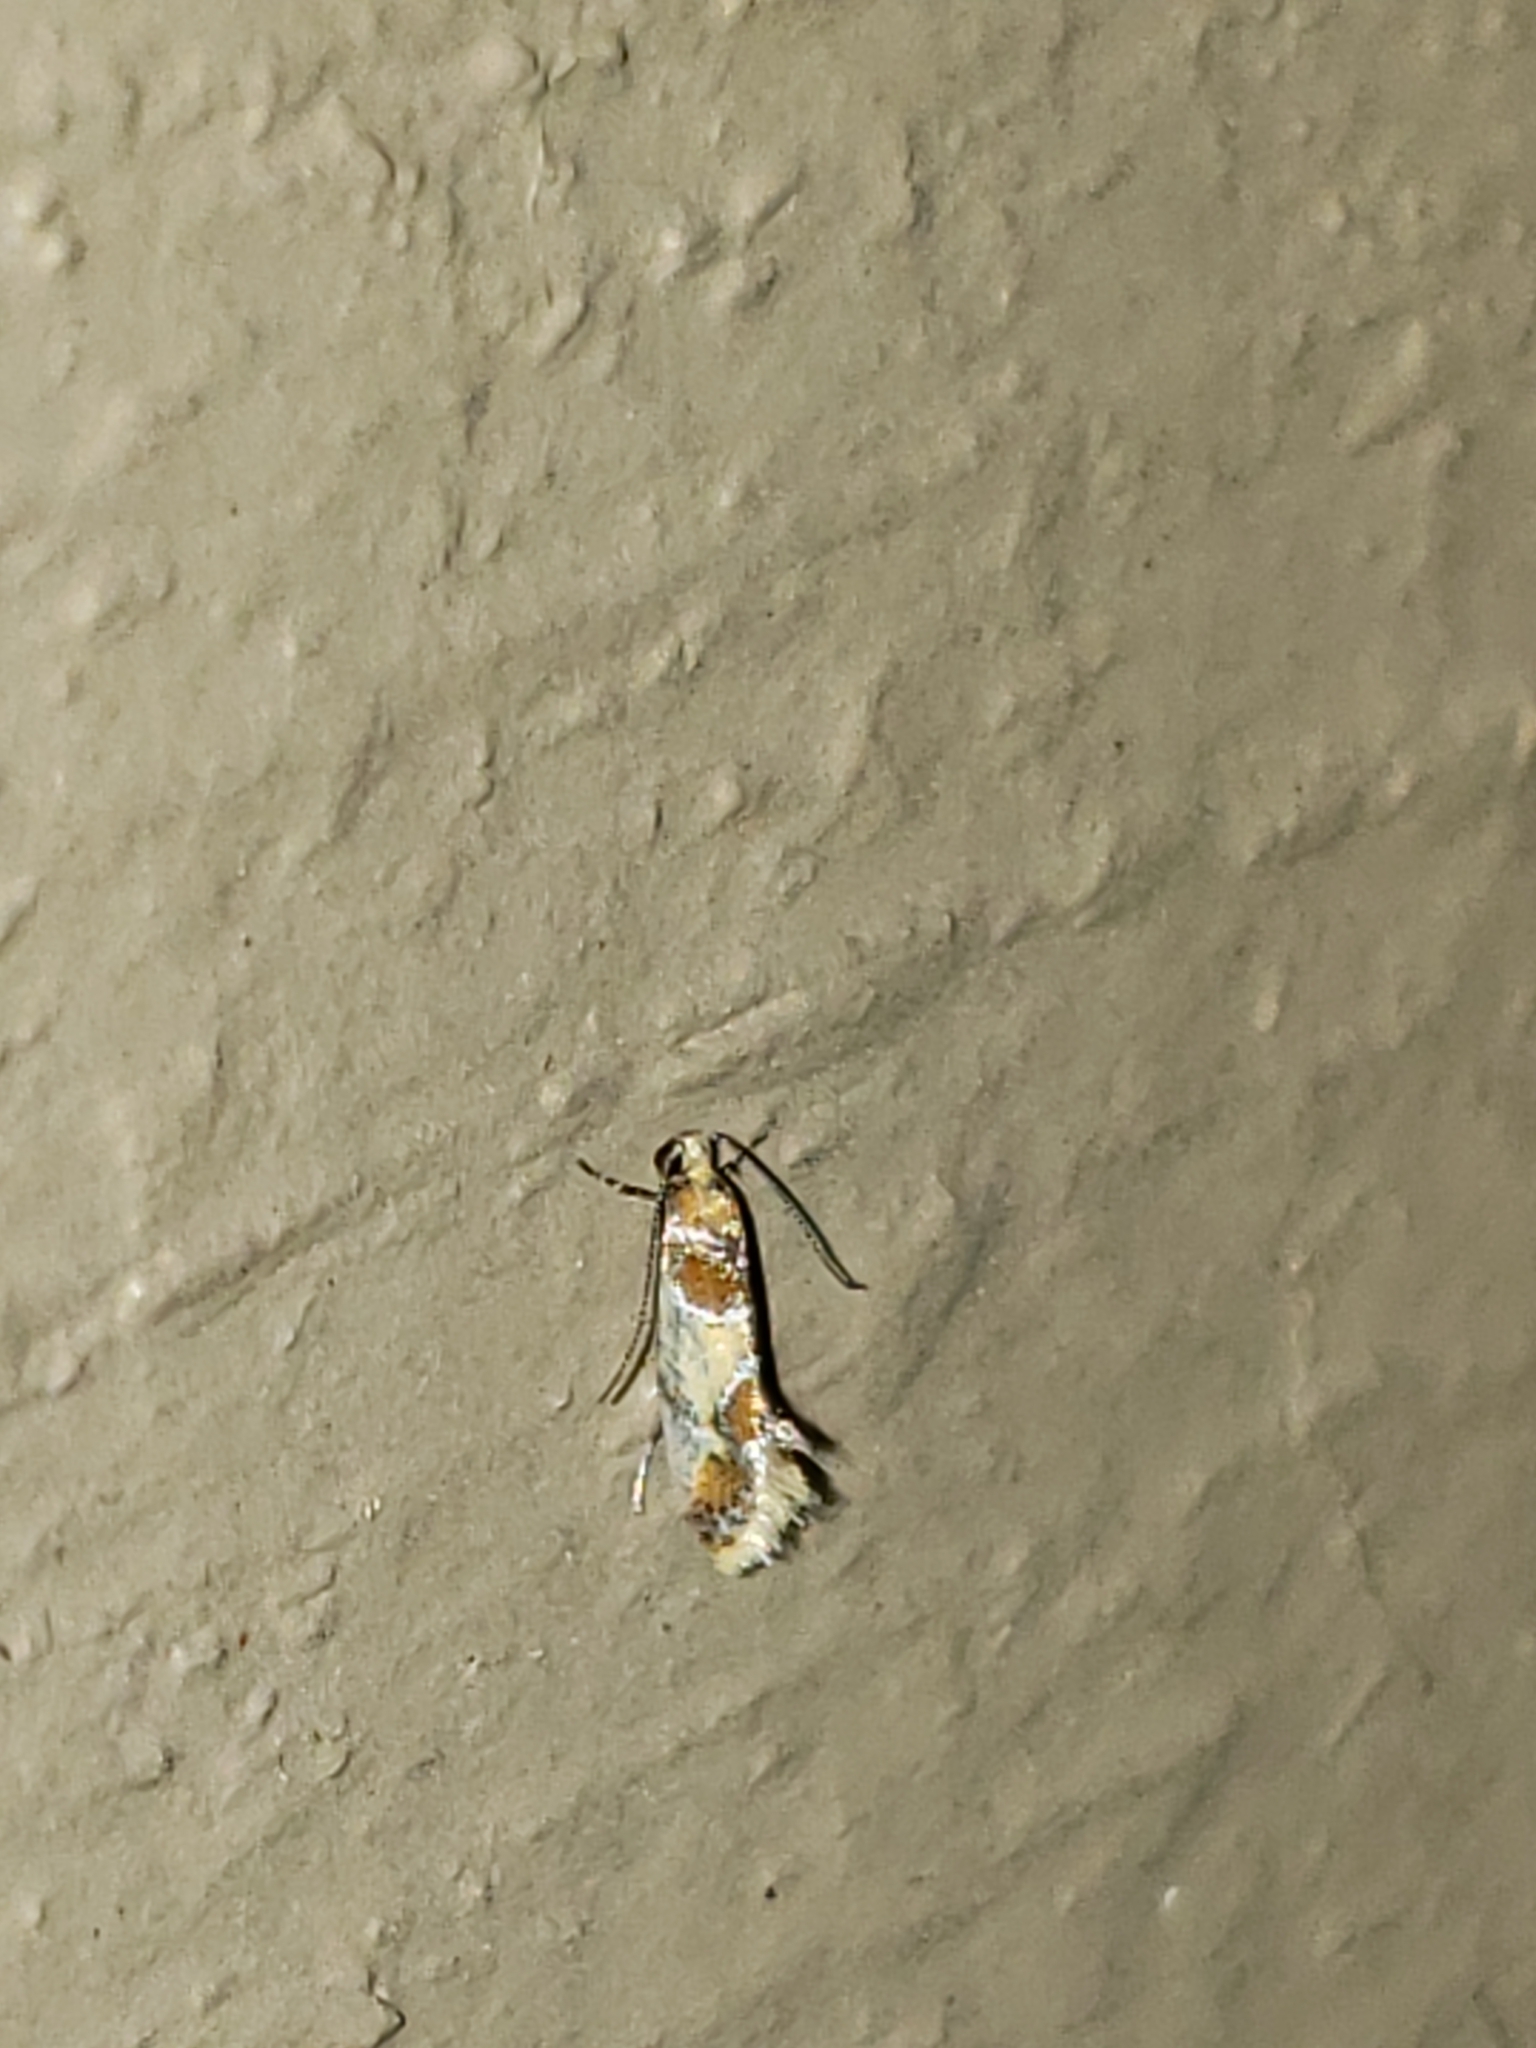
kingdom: Animalia
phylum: Arthropoda
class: Insecta
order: Lepidoptera
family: Oecophoridae
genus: Callima
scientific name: Callima argenticinctella
